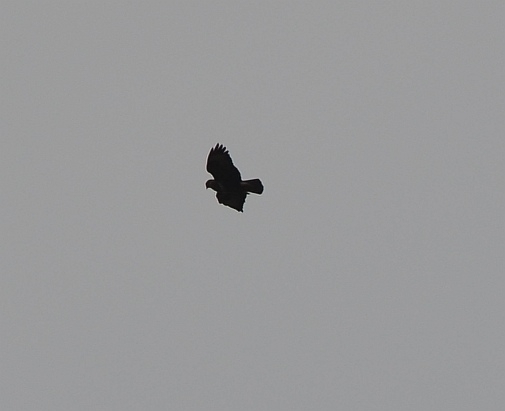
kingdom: Animalia
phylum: Chordata
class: Aves
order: Accipitriformes
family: Accipitridae
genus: Buteo
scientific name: Buteo buteo
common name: Common buzzard
